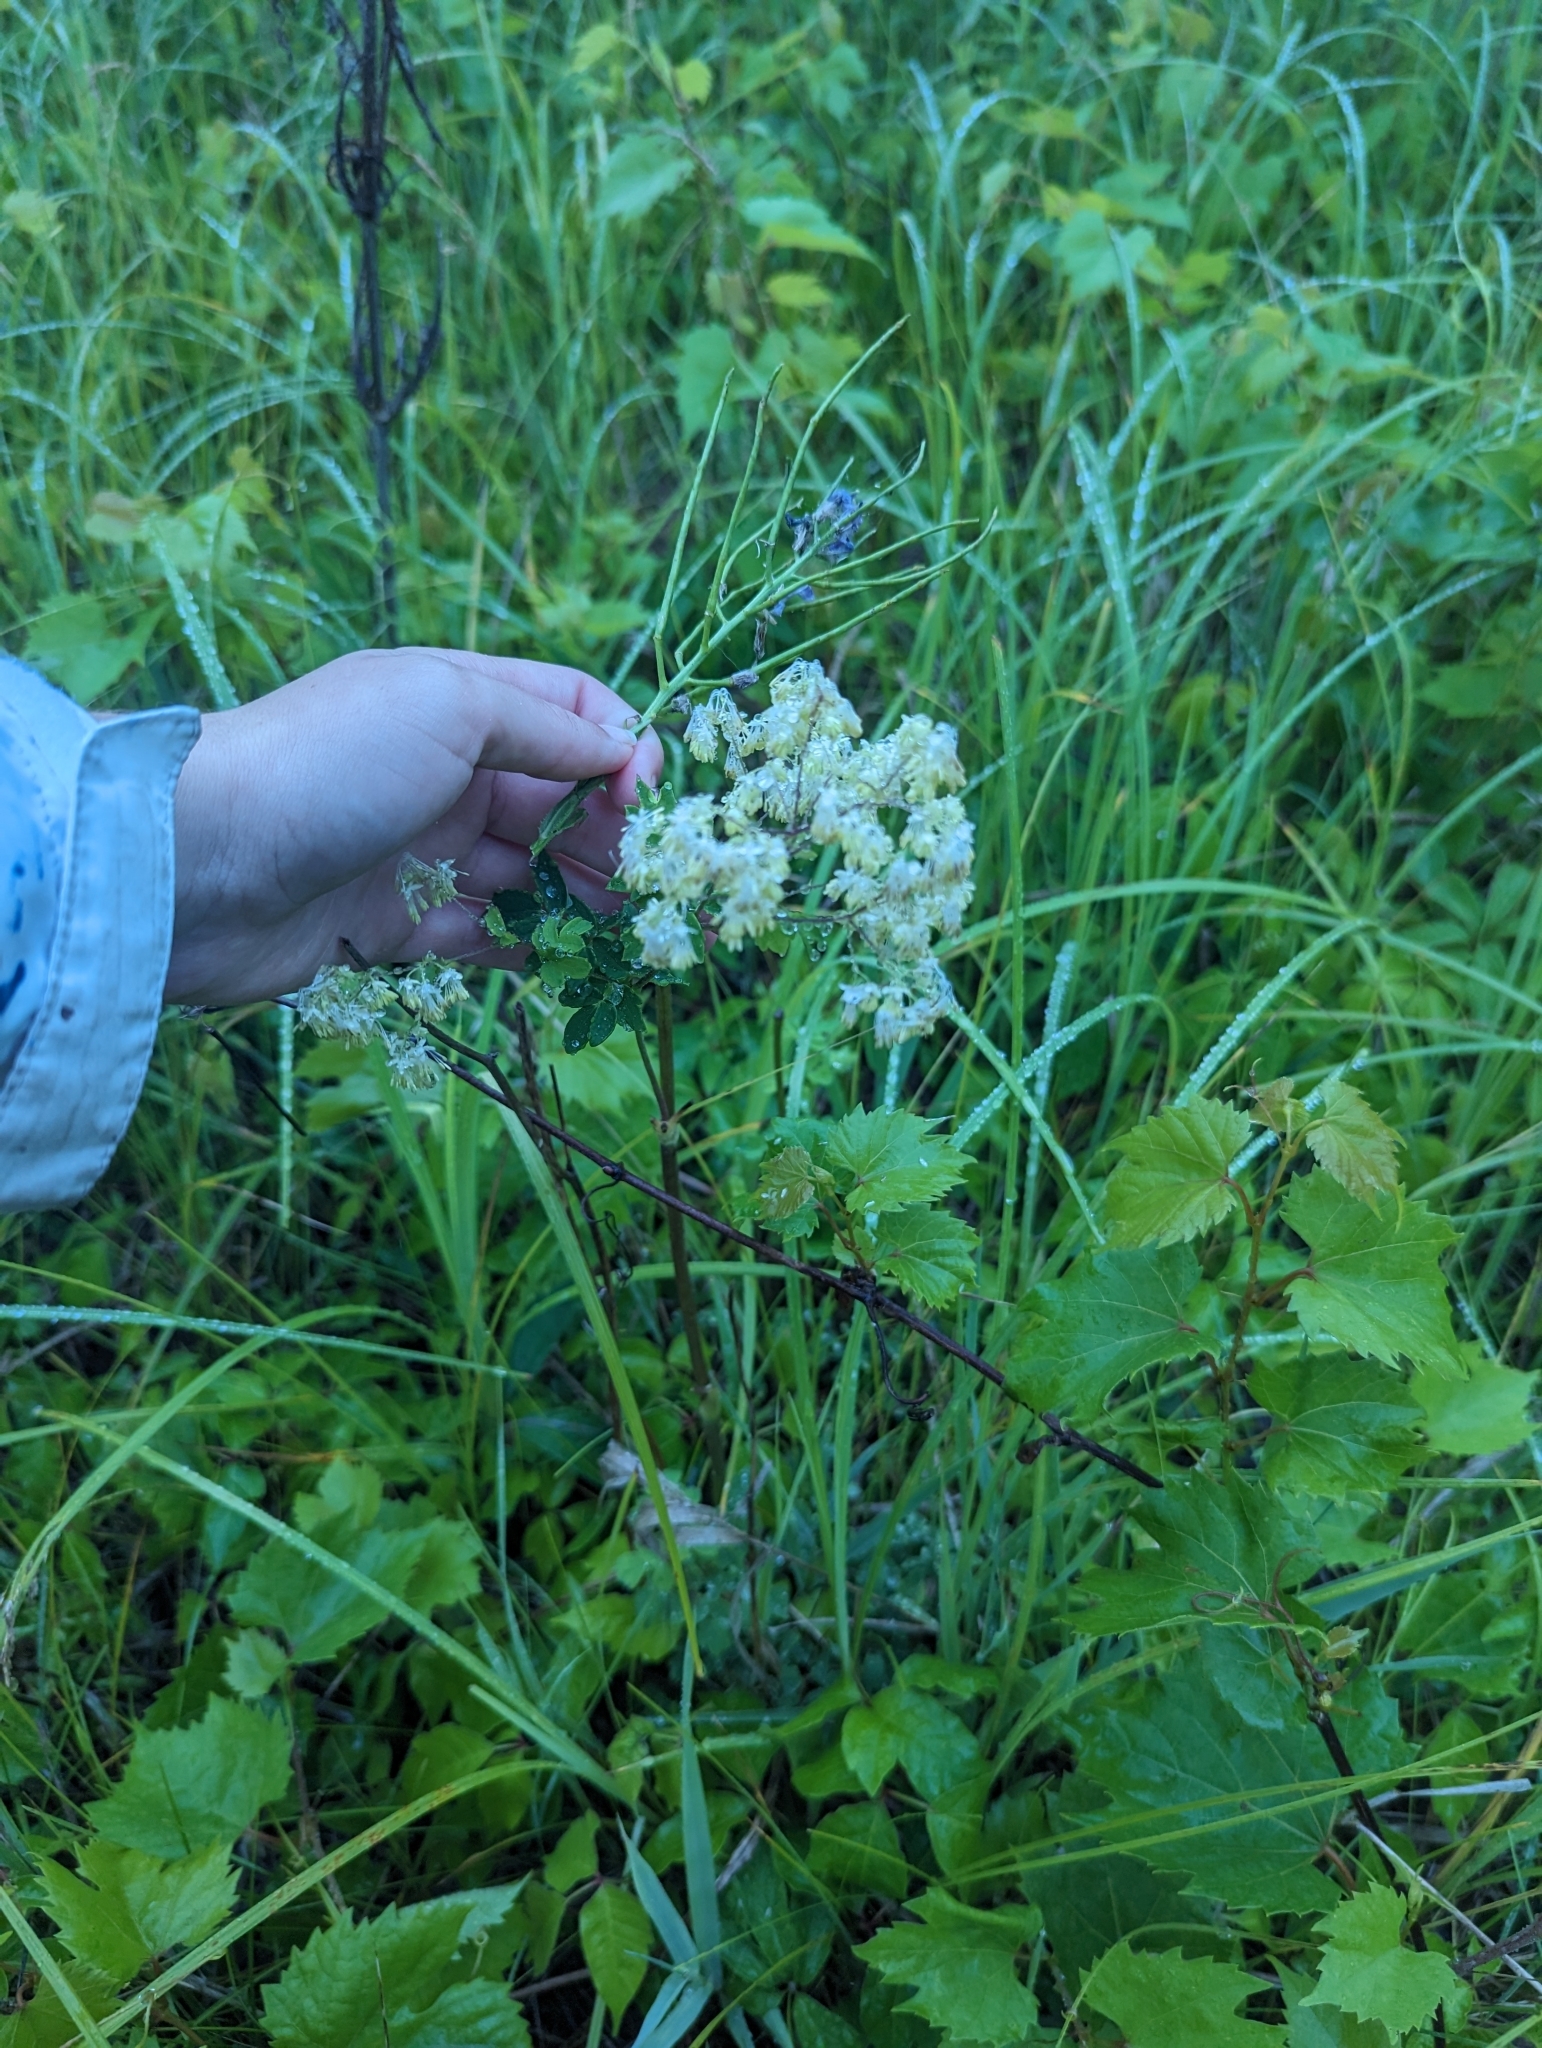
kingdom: Plantae
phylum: Tracheophyta
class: Magnoliopsida
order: Ranunculales
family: Ranunculaceae
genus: Thalictrum
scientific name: Thalictrum pubescens
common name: King-of-the-meadow
